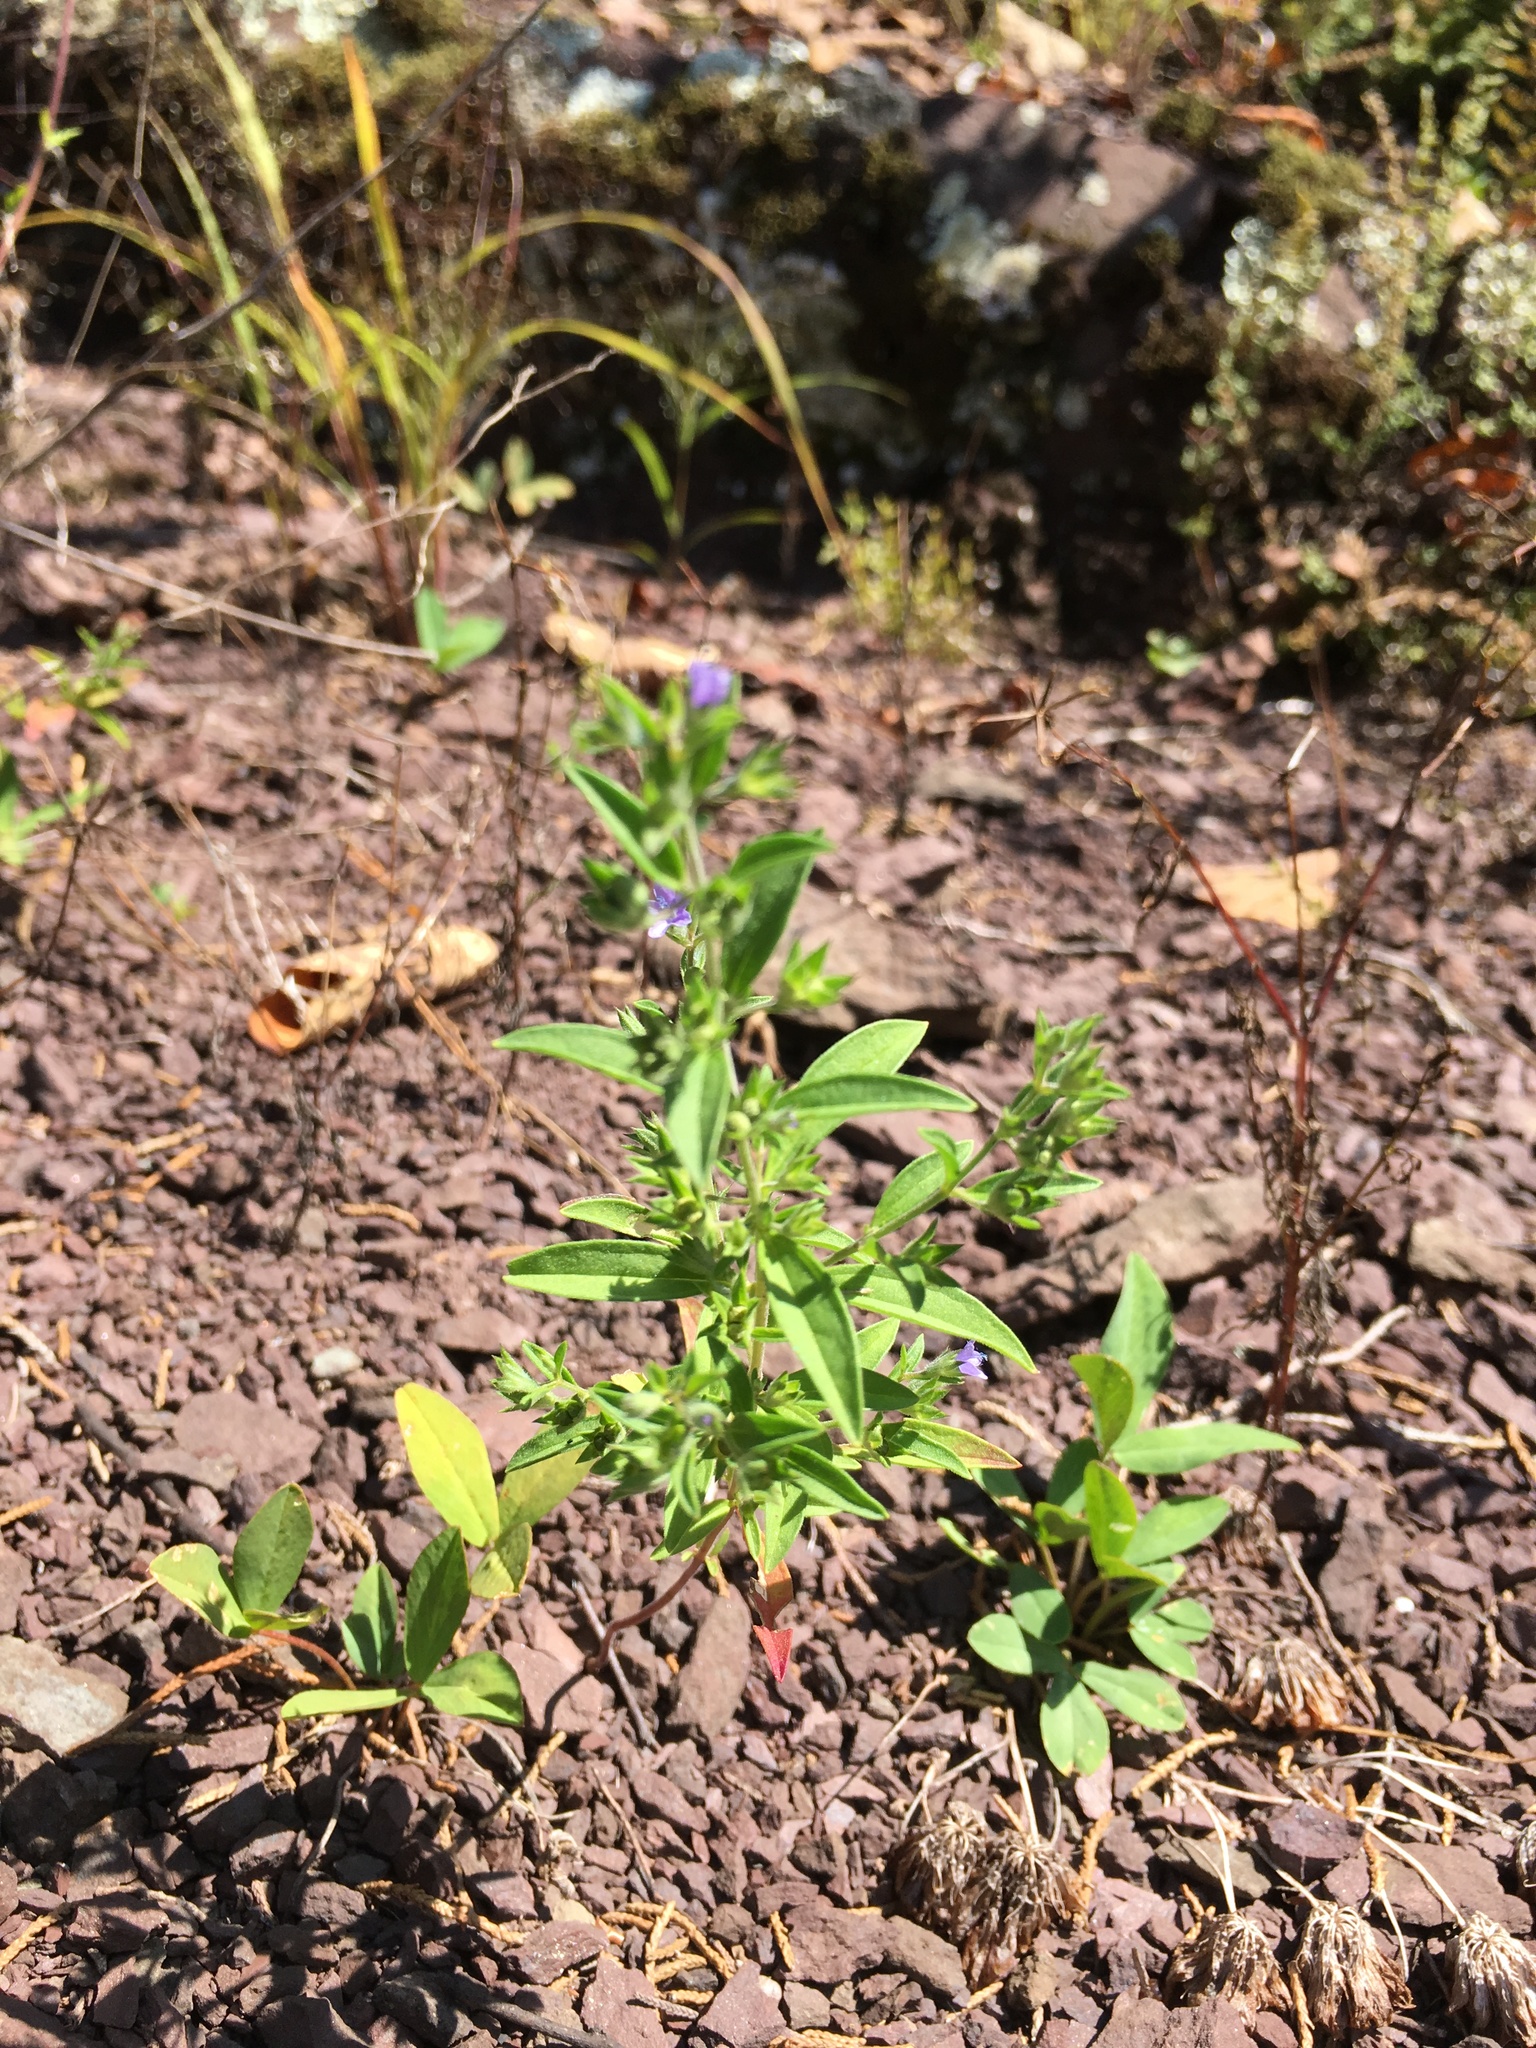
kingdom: Plantae
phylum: Tracheophyta
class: Magnoliopsida
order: Lamiales
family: Lamiaceae
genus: Trichostema
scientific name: Trichostema brachiatum
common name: False pennyroyal
